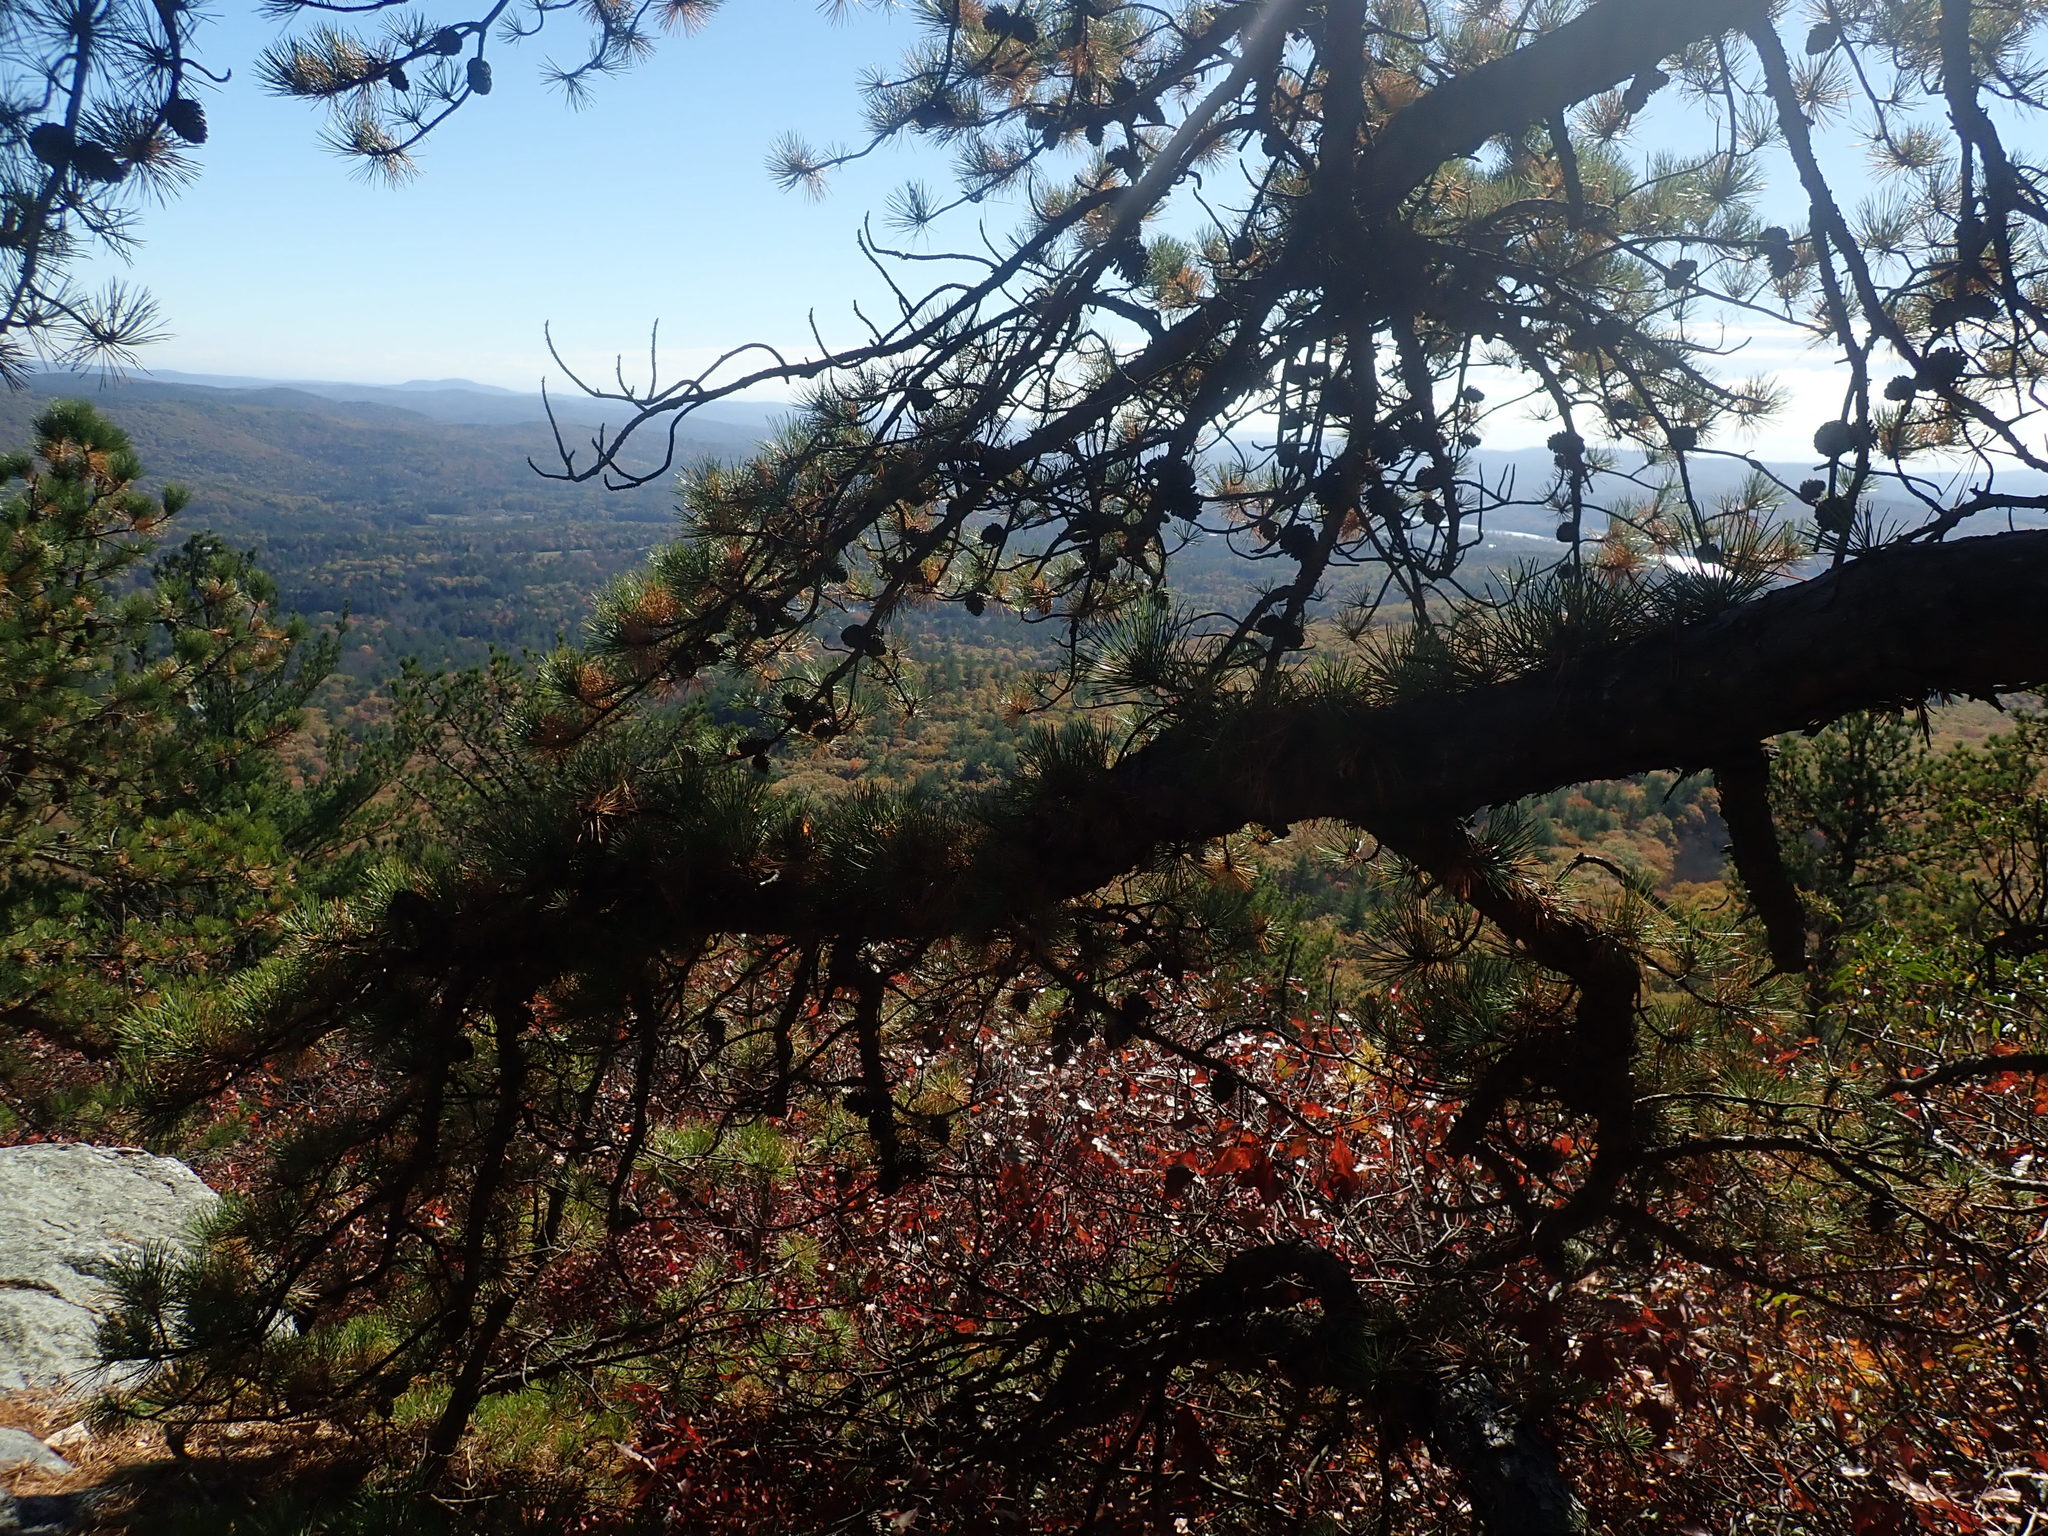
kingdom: Plantae
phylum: Tracheophyta
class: Pinopsida
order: Pinales
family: Pinaceae
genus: Pinus
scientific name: Pinus rigida
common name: Pitch pine
